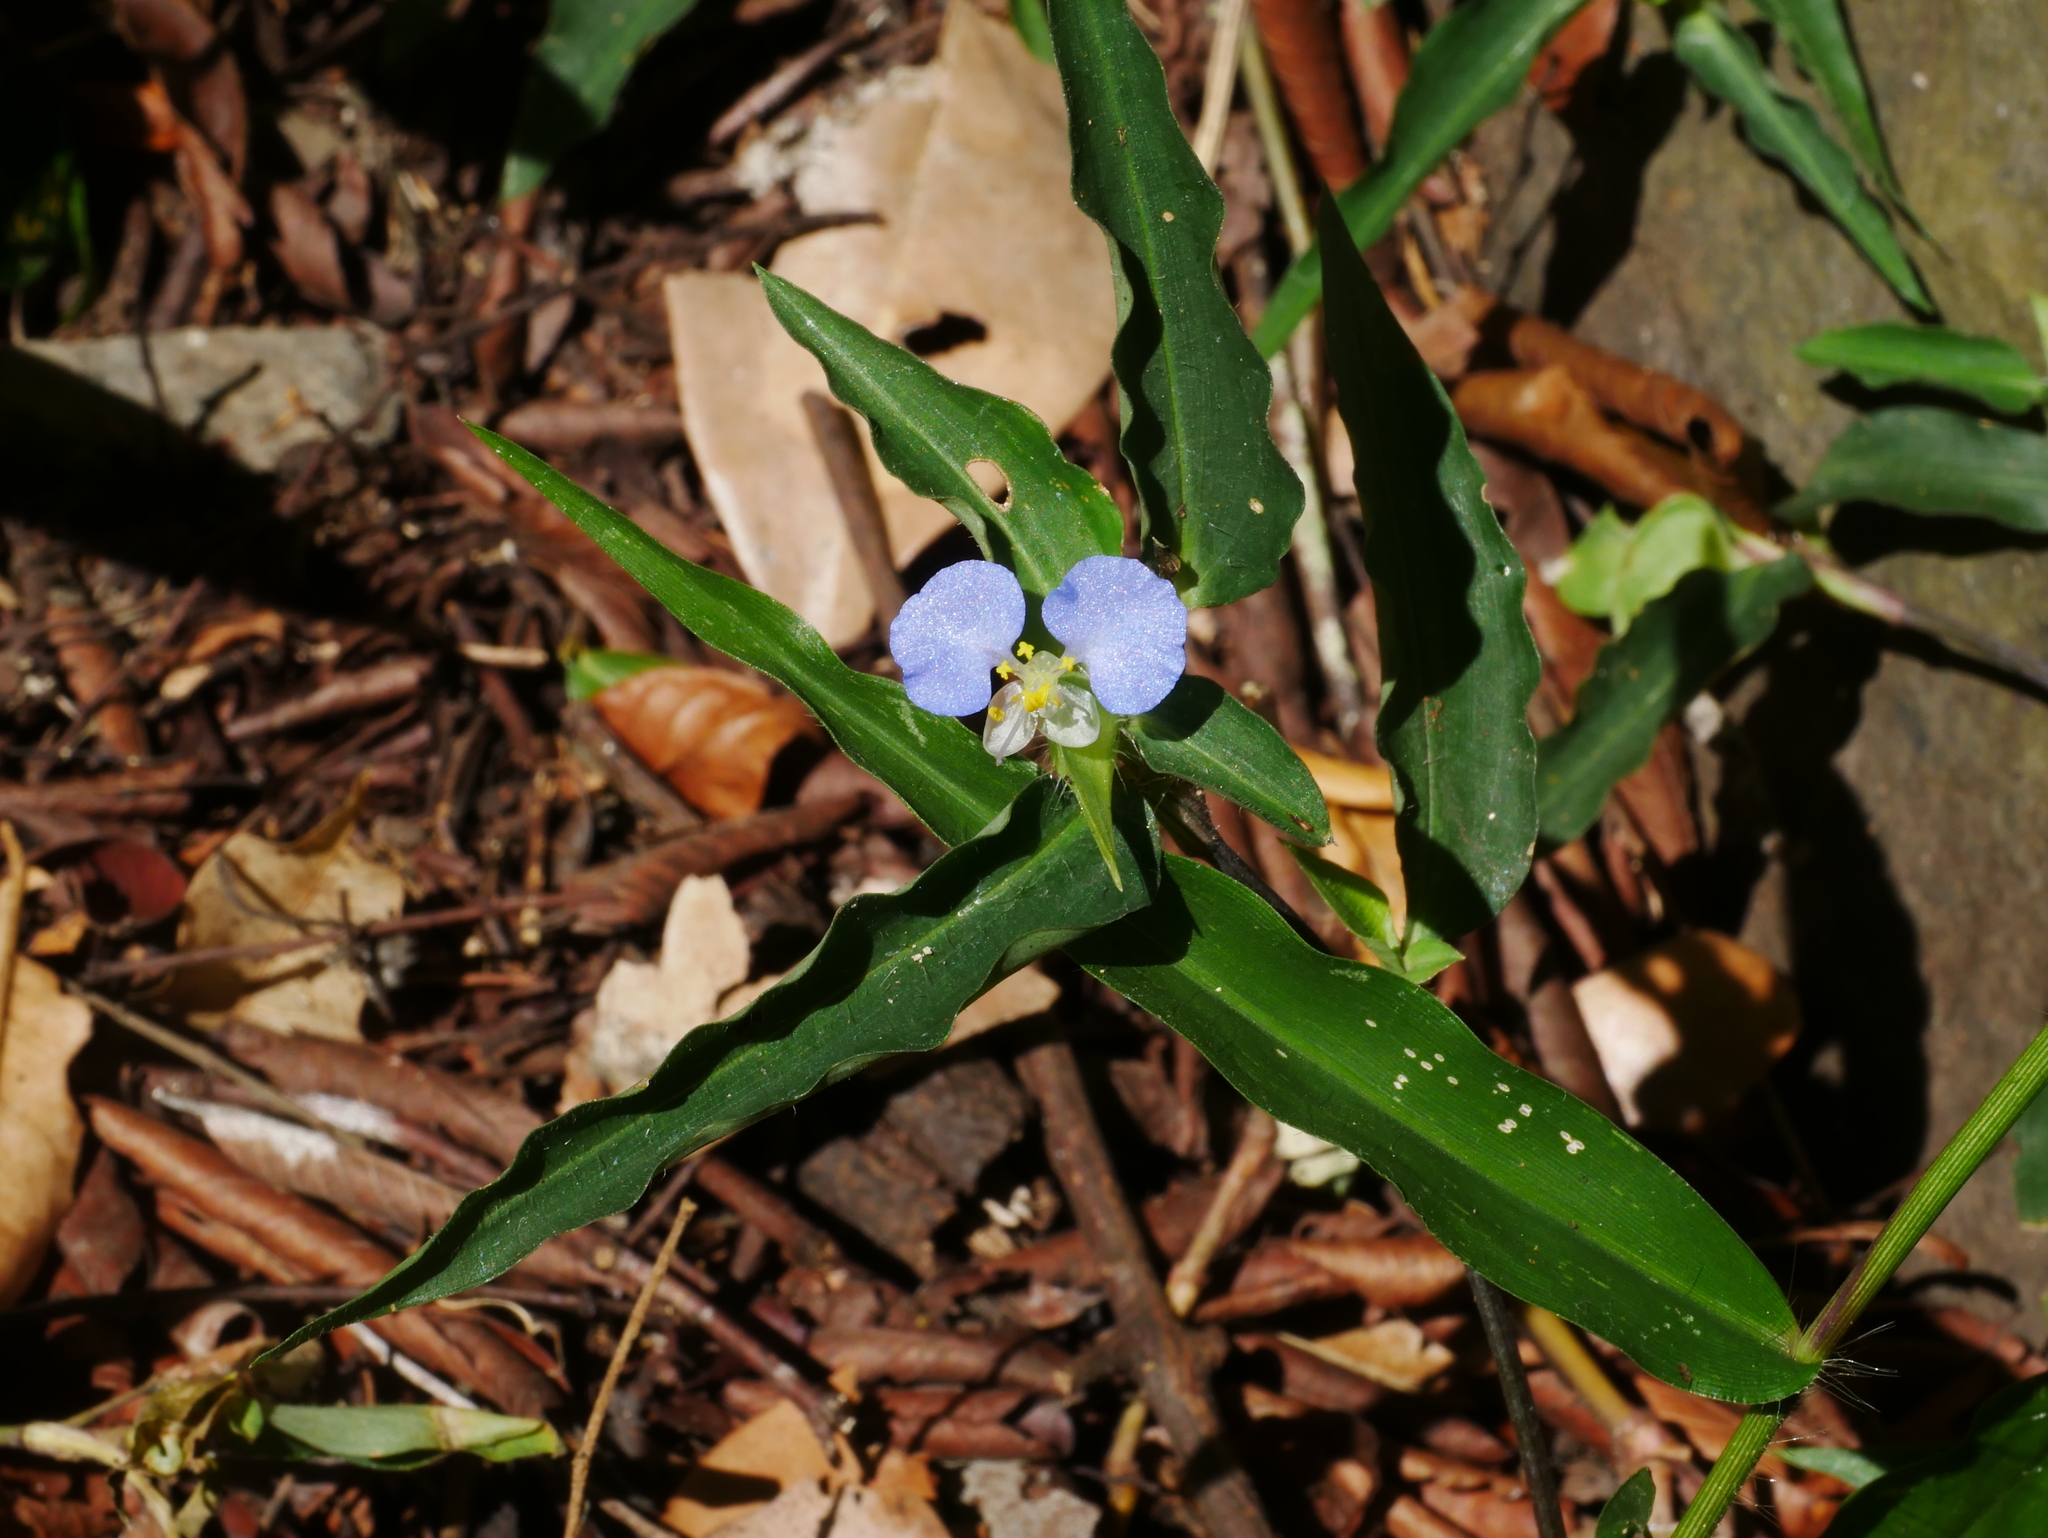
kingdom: Plantae
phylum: Tracheophyta
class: Liliopsida
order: Commelinales
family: Commelinaceae
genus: Commelina
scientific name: Commelina auriculata
